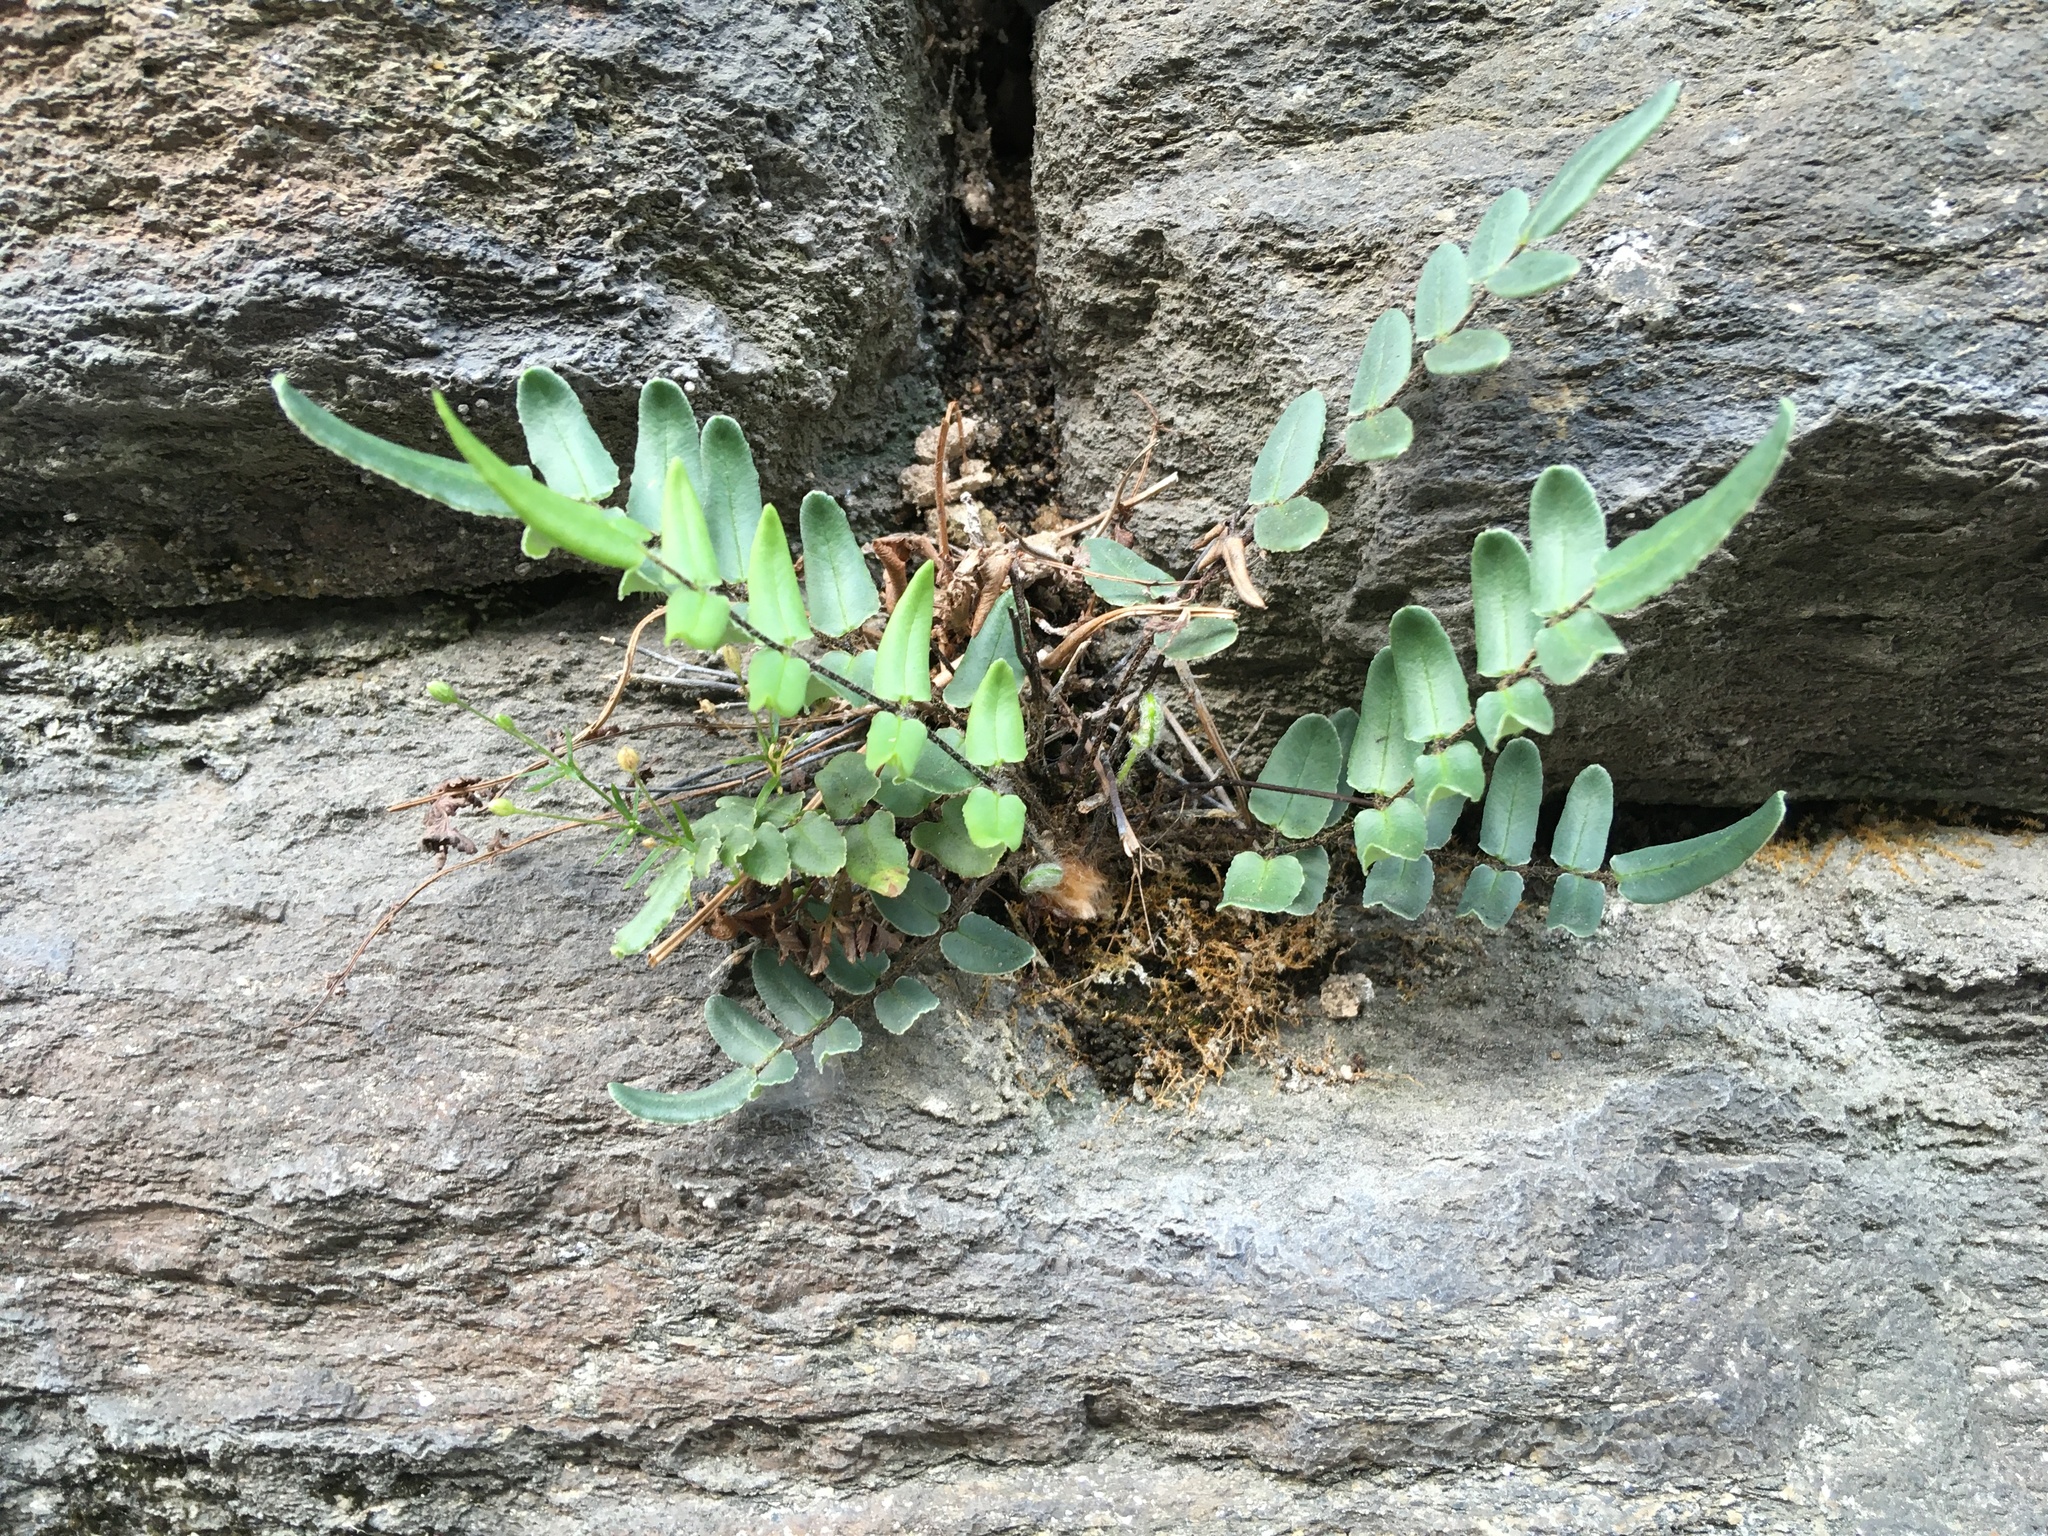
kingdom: Plantae
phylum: Tracheophyta
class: Polypodiopsida
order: Polypodiales
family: Pteridaceae
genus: Pellaea
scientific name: Pellaea atropurpurea
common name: Hairy cliffbrake
